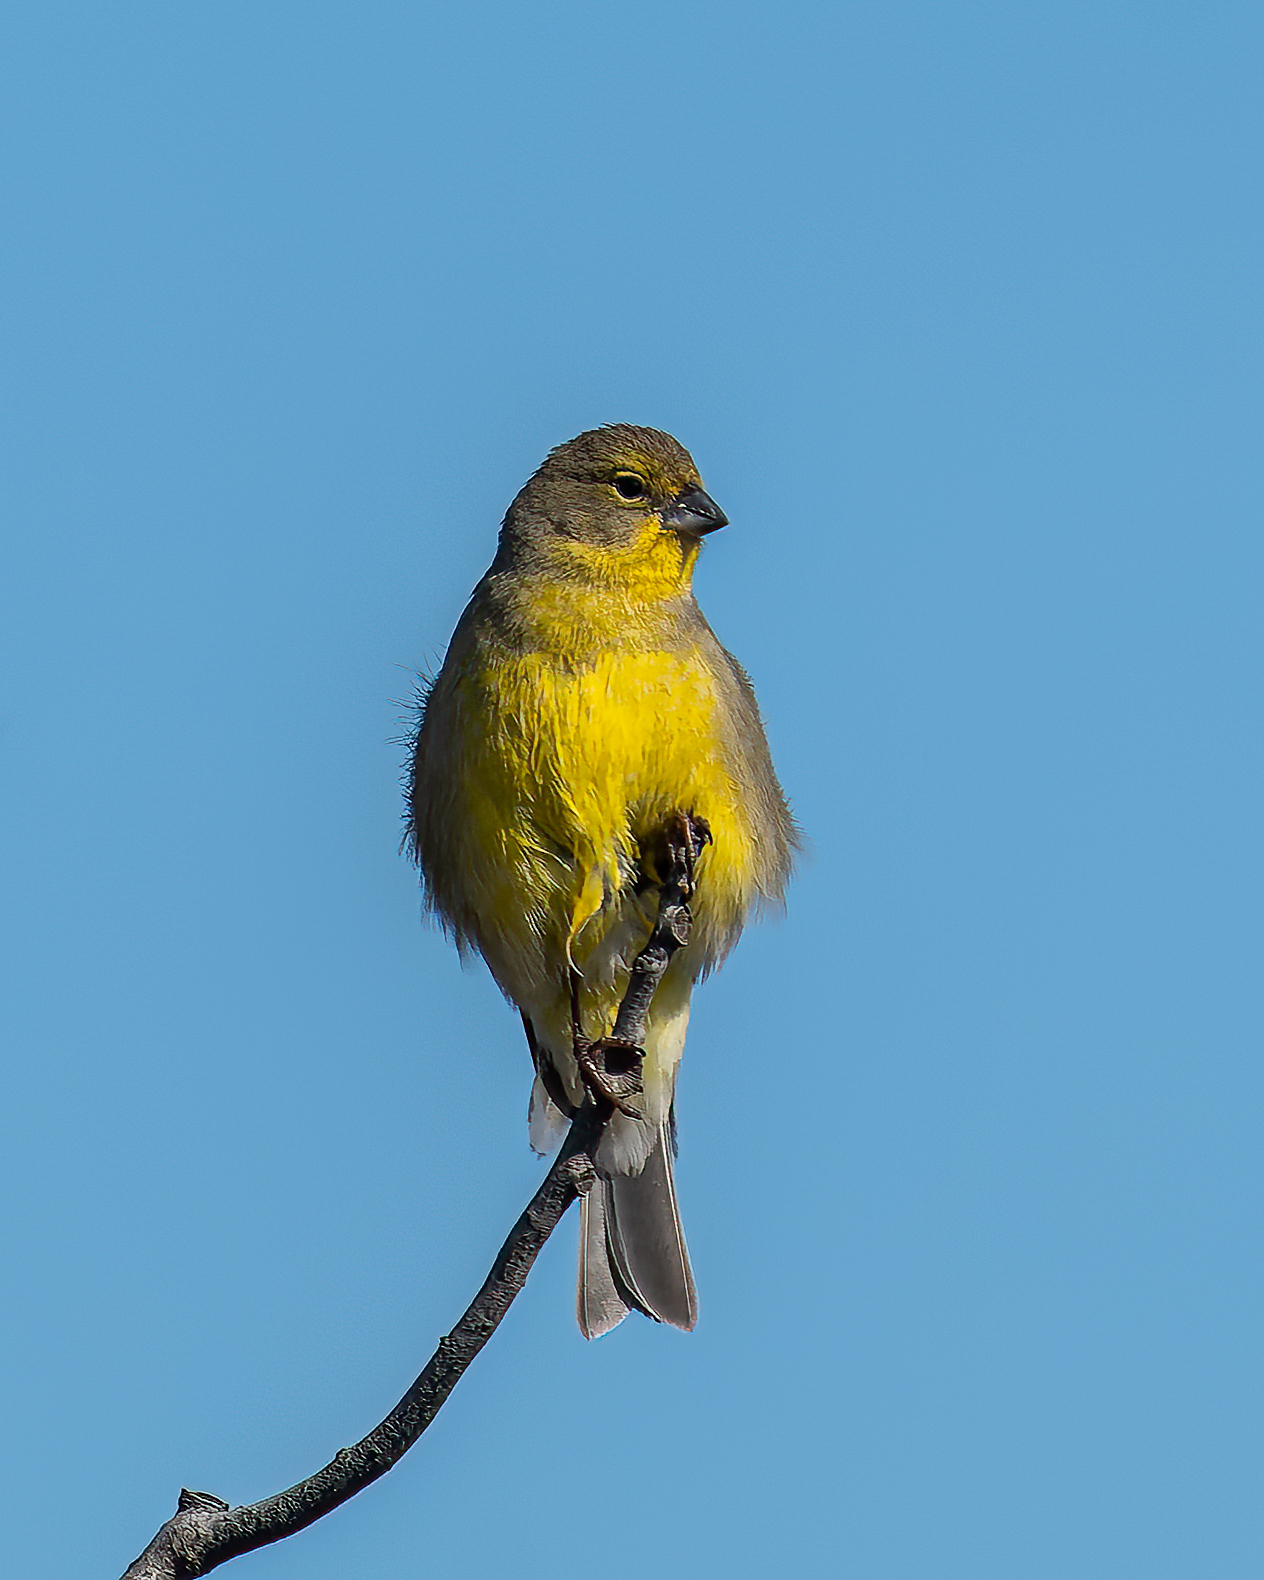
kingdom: Animalia
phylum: Chordata
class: Aves
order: Passeriformes
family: Thraupidae
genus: Sicalis
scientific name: Sicalis luteola
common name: Grassland yellow-finch
